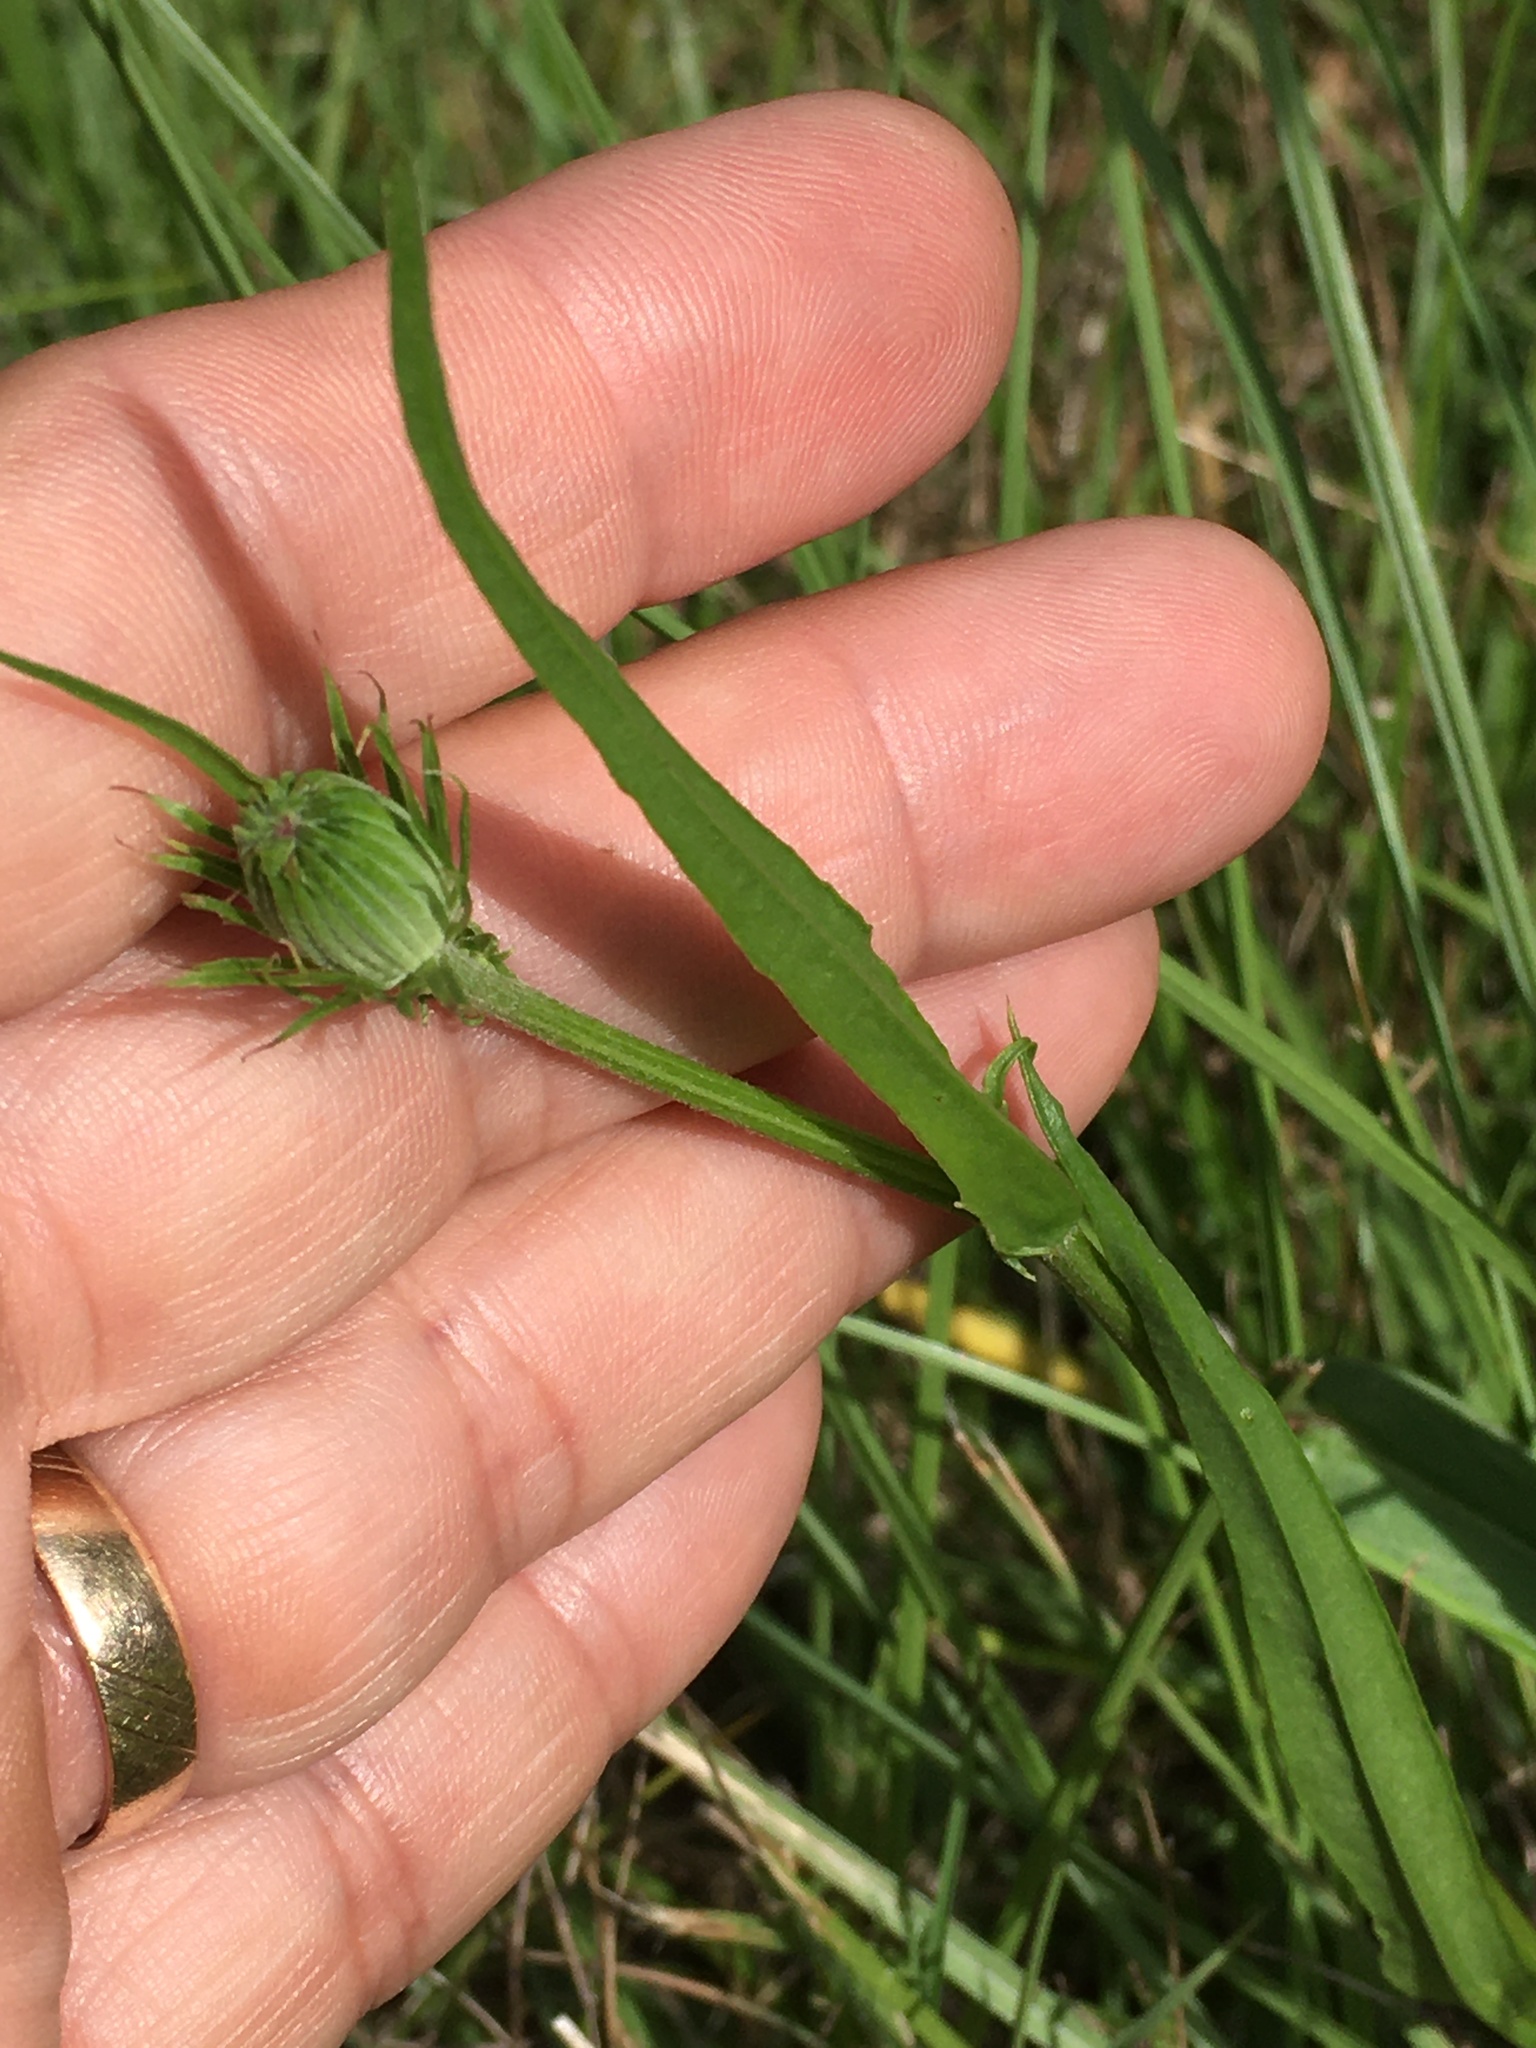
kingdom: Plantae
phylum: Tracheophyta
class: Magnoliopsida
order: Asterales
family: Asteraceae
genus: Pyrrhopappus
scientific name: Pyrrhopappus carolinianus
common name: Carolina desert-chicory
